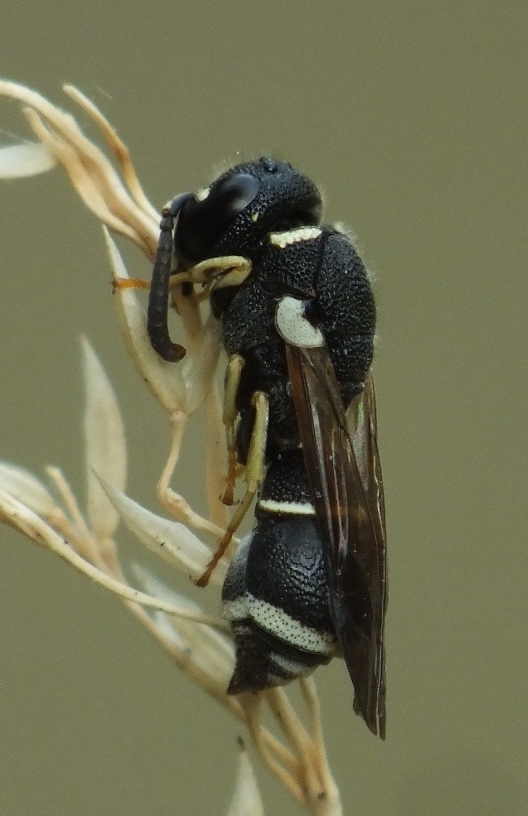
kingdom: Animalia
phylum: Arthropoda
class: Insecta
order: Hymenoptera
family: Eumenidae
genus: Alastor
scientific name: Alastor mocsaryi
